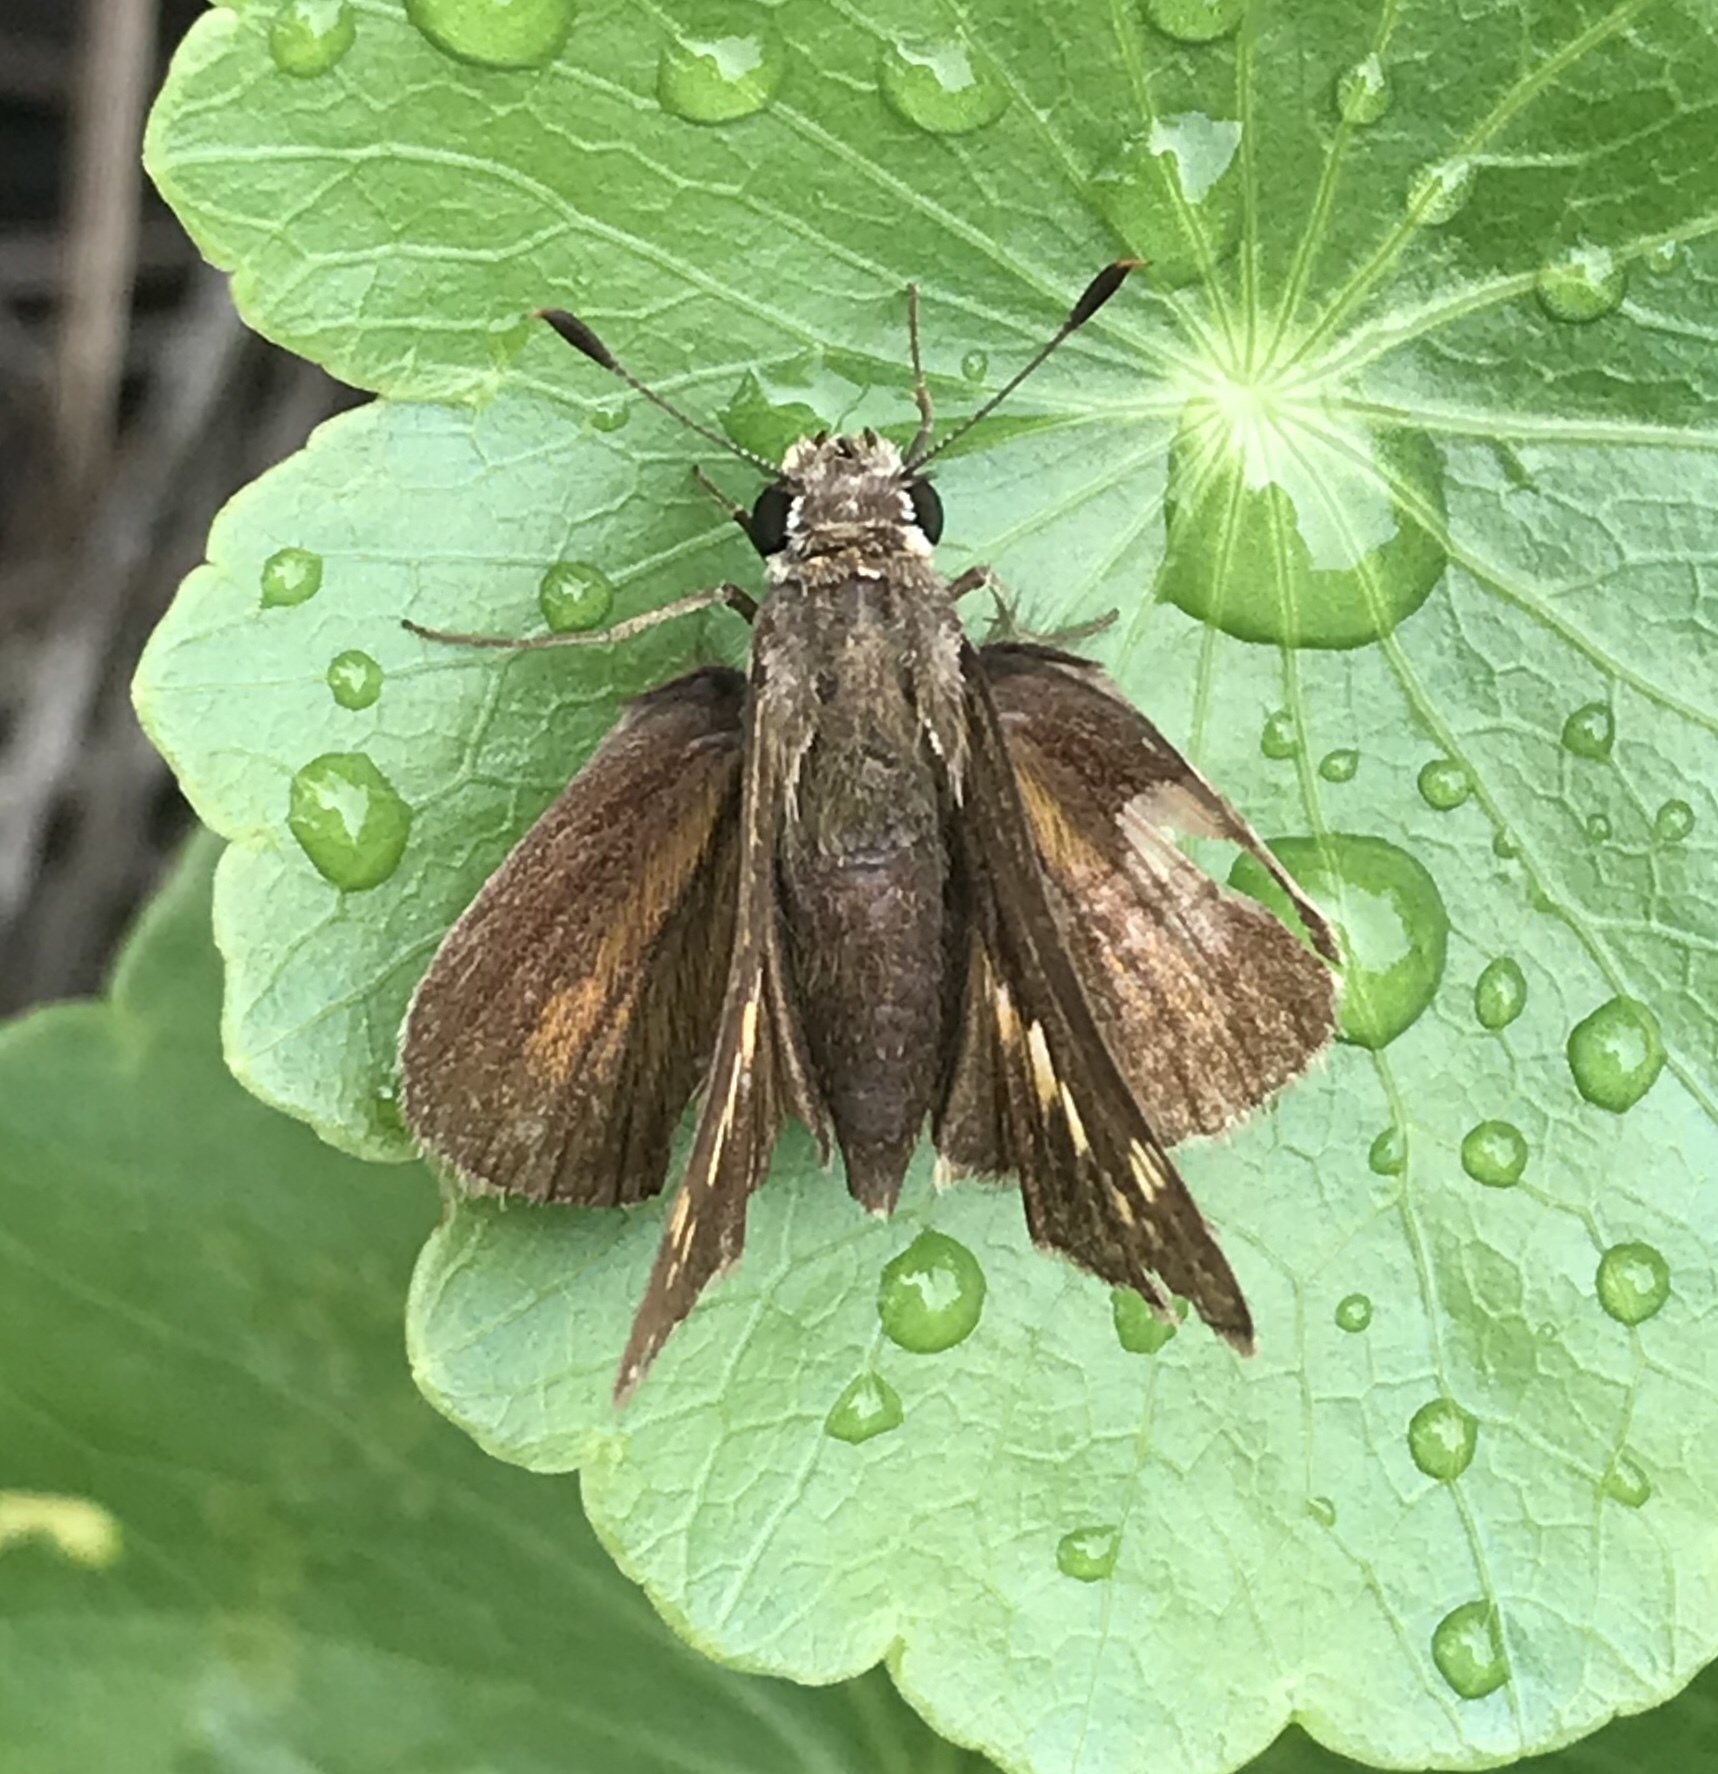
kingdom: Animalia
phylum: Arthropoda
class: Insecta
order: Lepidoptera
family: Hesperiidae
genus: Lon
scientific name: Lon zabulon
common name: Zabulon skipper
